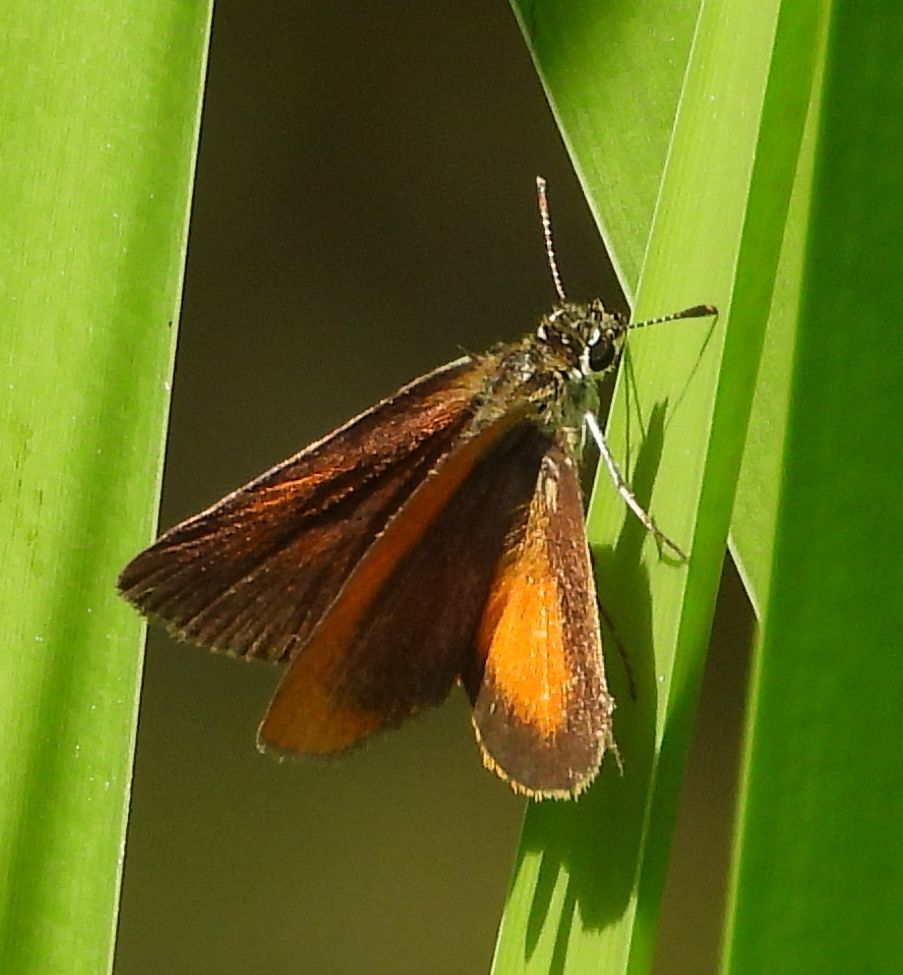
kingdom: Animalia
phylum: Arthropoda
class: Insecta
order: Lepidoptera
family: Hesperiidae
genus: Ancyloxypha
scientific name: Ancyloxypha numitor
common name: Least skipper
